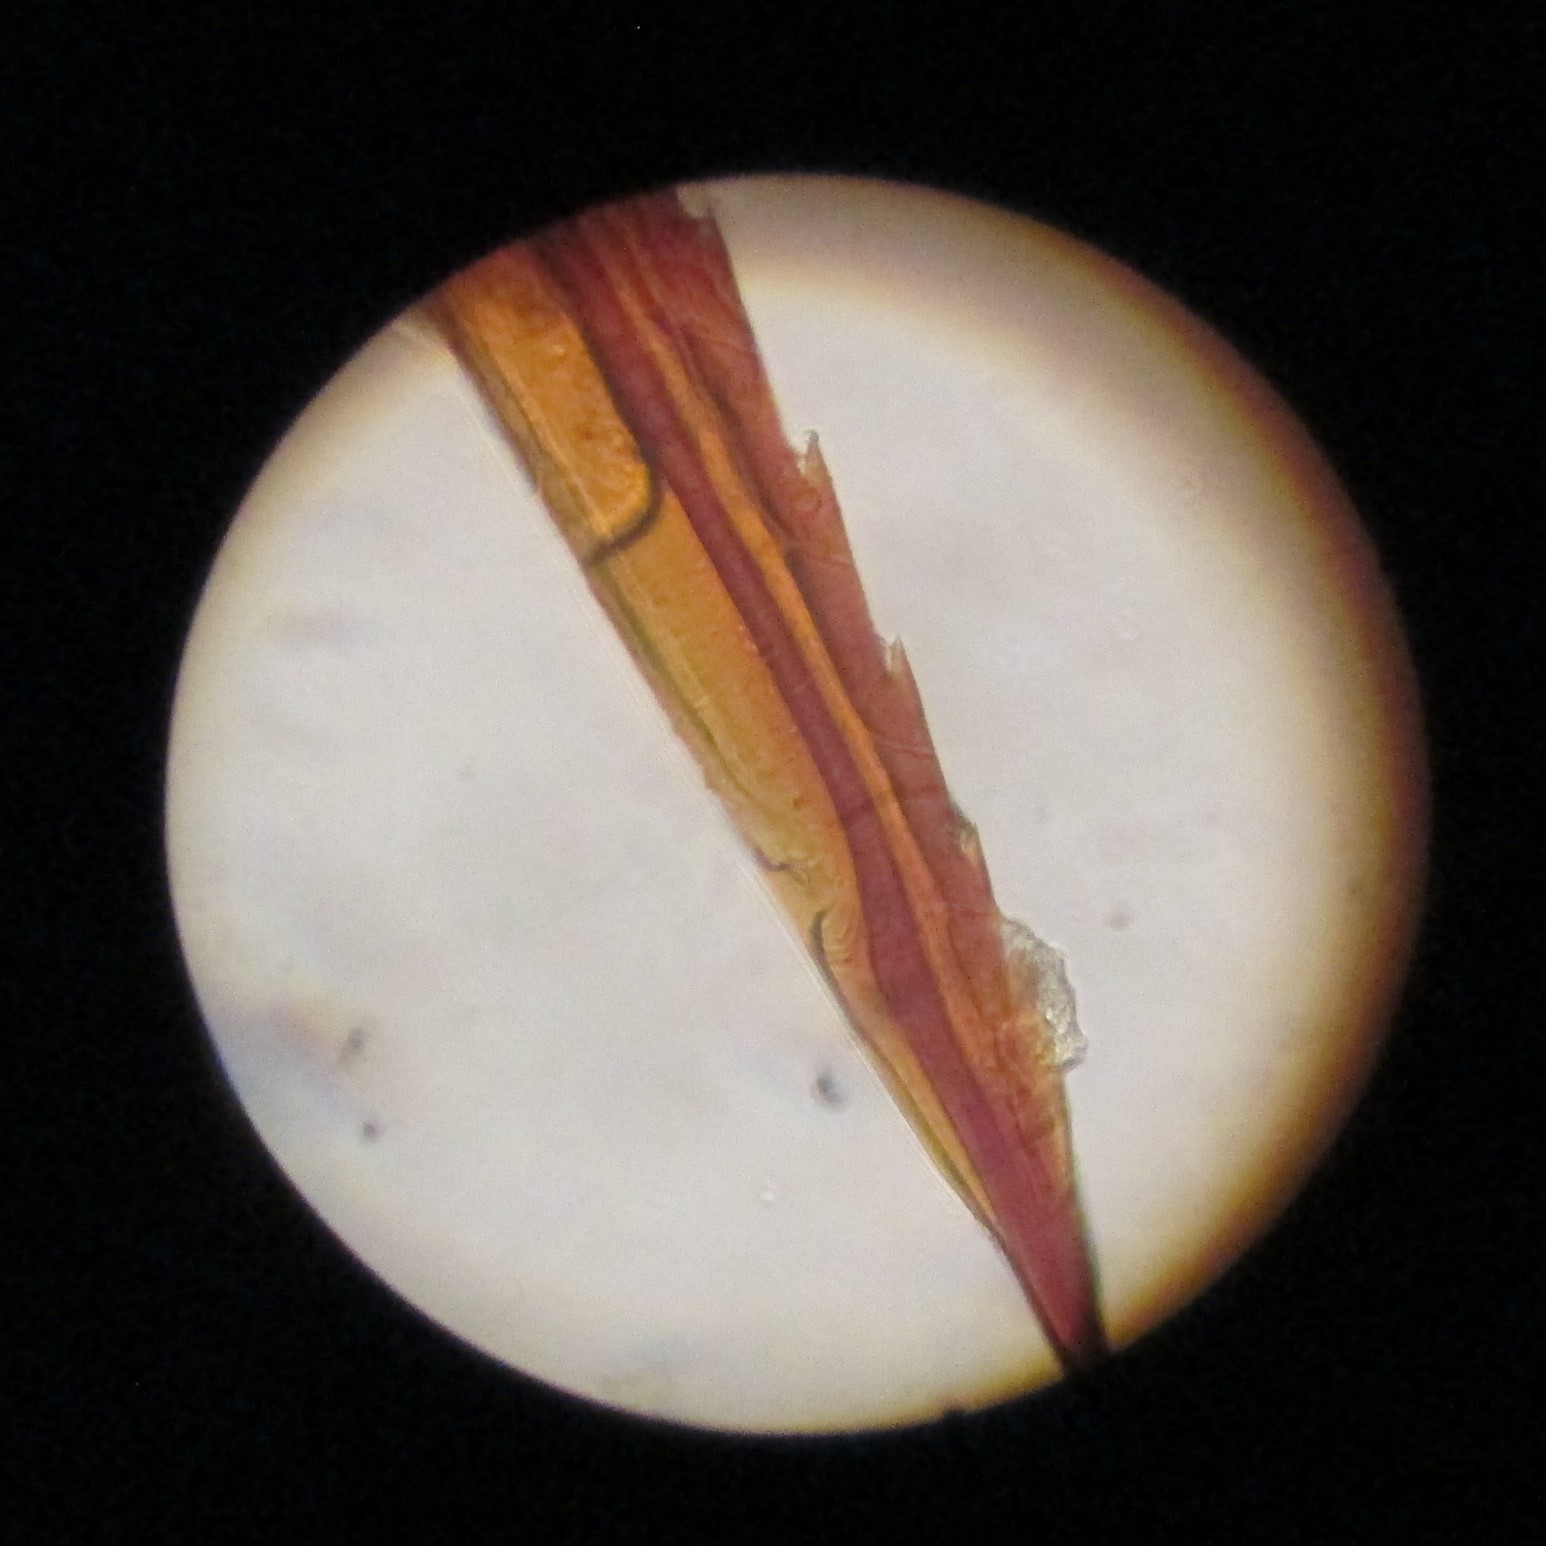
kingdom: Animalia
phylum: Arthropoda
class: Insecta
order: Hymenoptera
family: Vespidae
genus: Vespula
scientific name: Vespula vulgaris
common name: Common wasp
